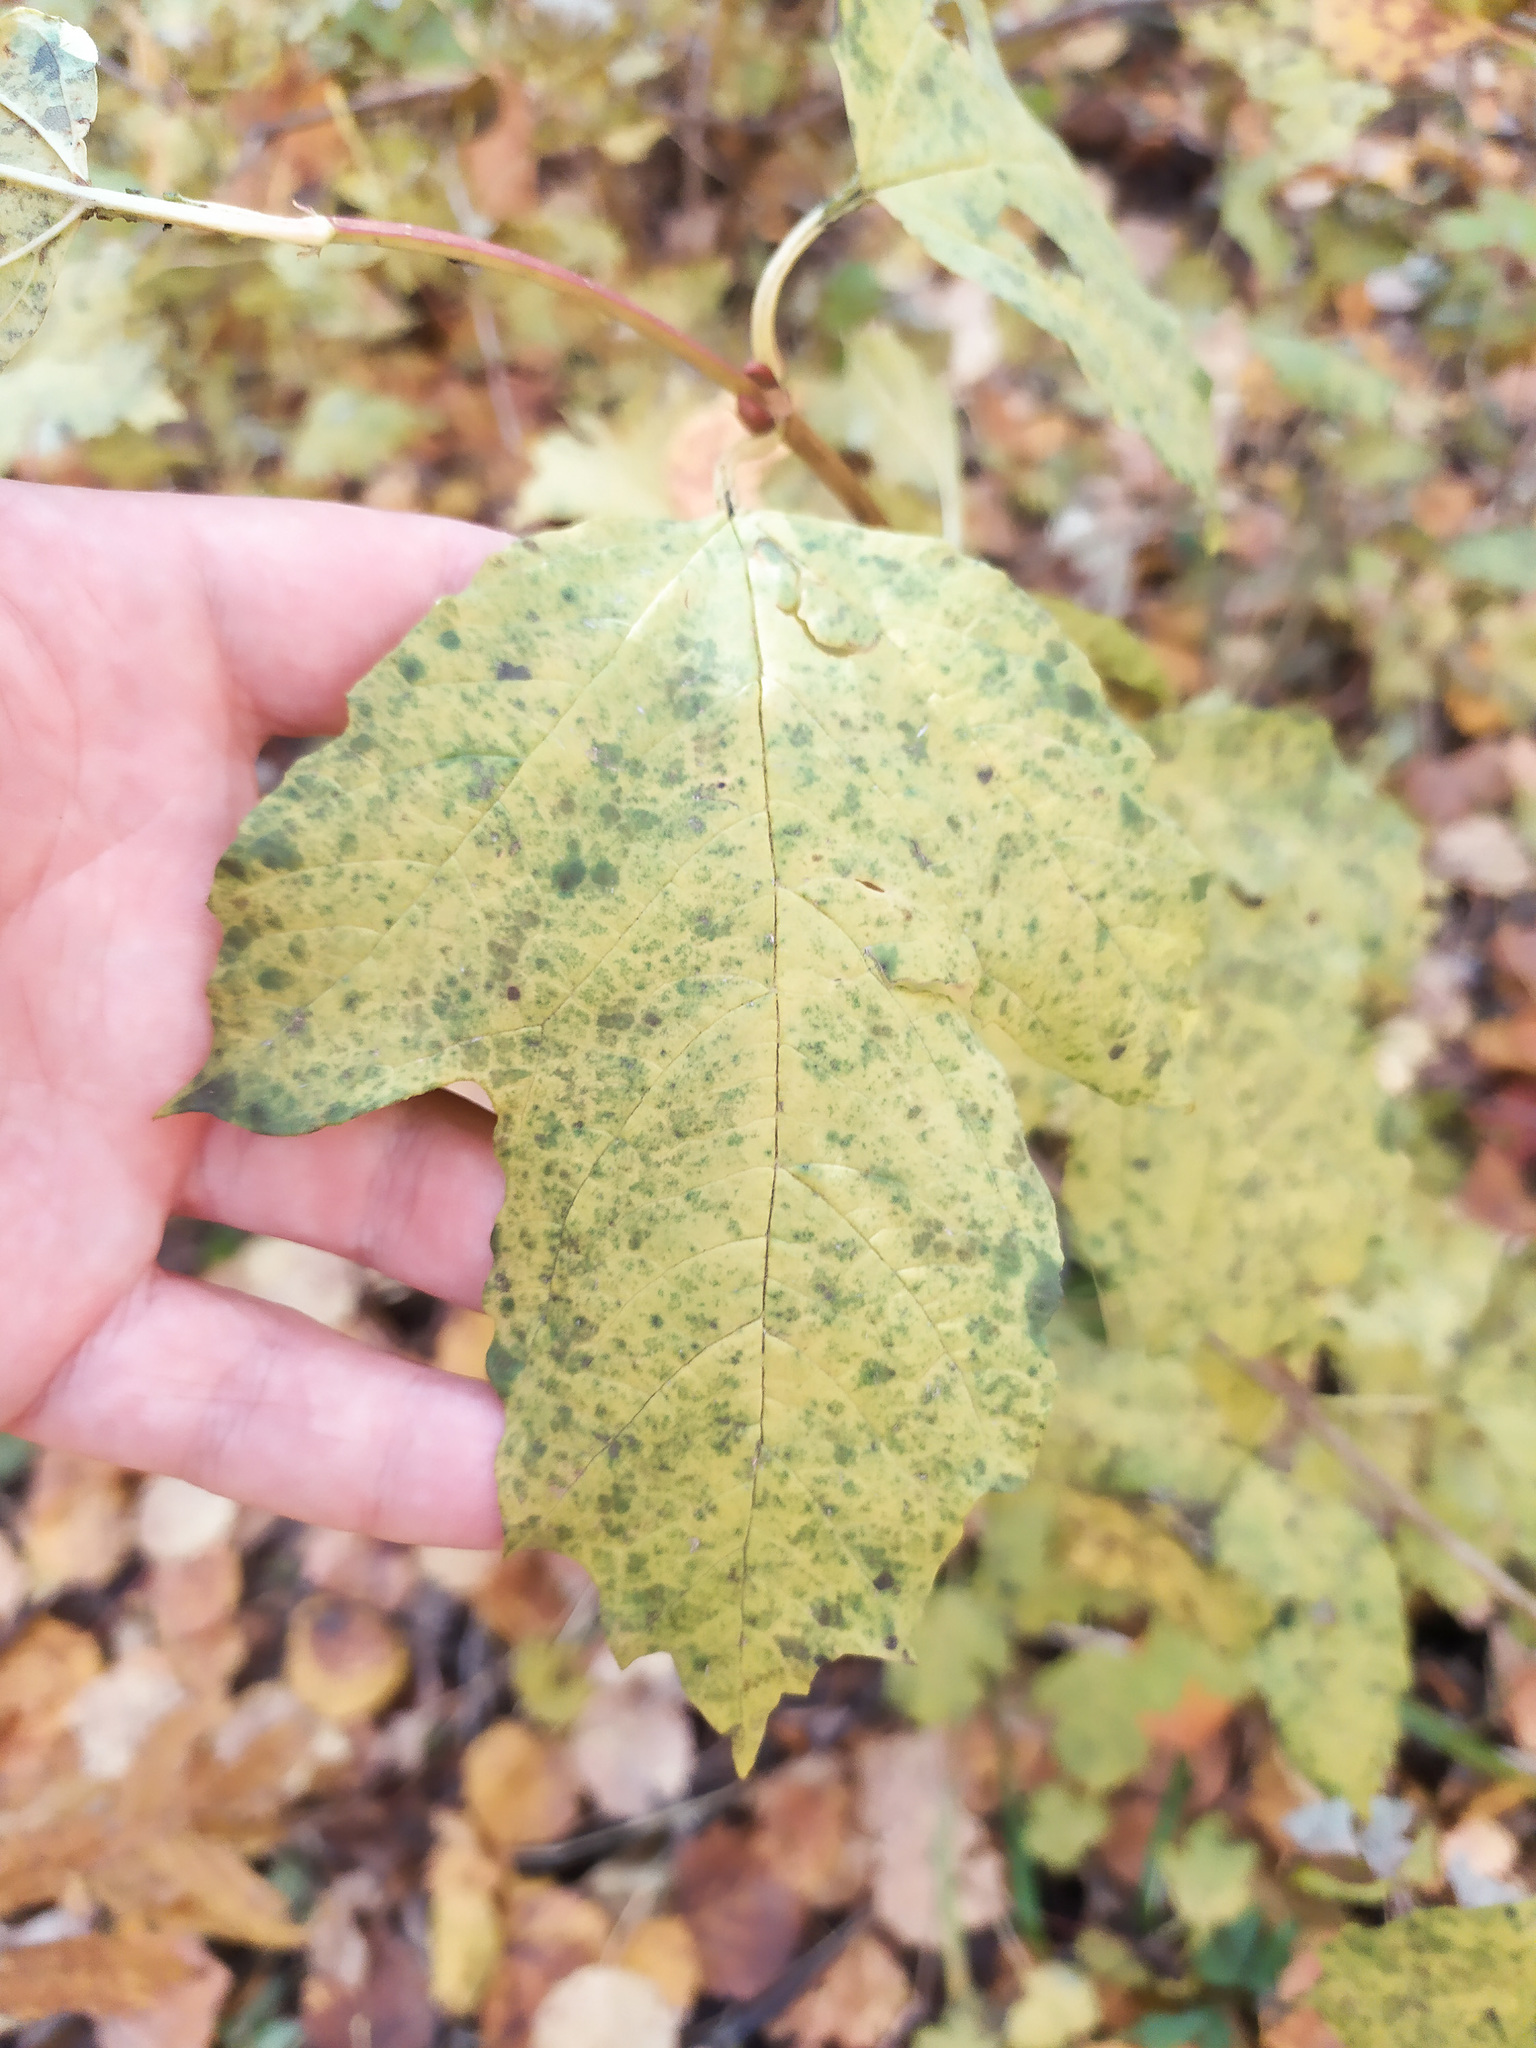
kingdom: Plantae
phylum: Tracheophyta
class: Magnoliopsida
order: Dipsacales
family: Viburnaceae
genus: Viburnum
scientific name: Viburnum opulus
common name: Guelder-rose
